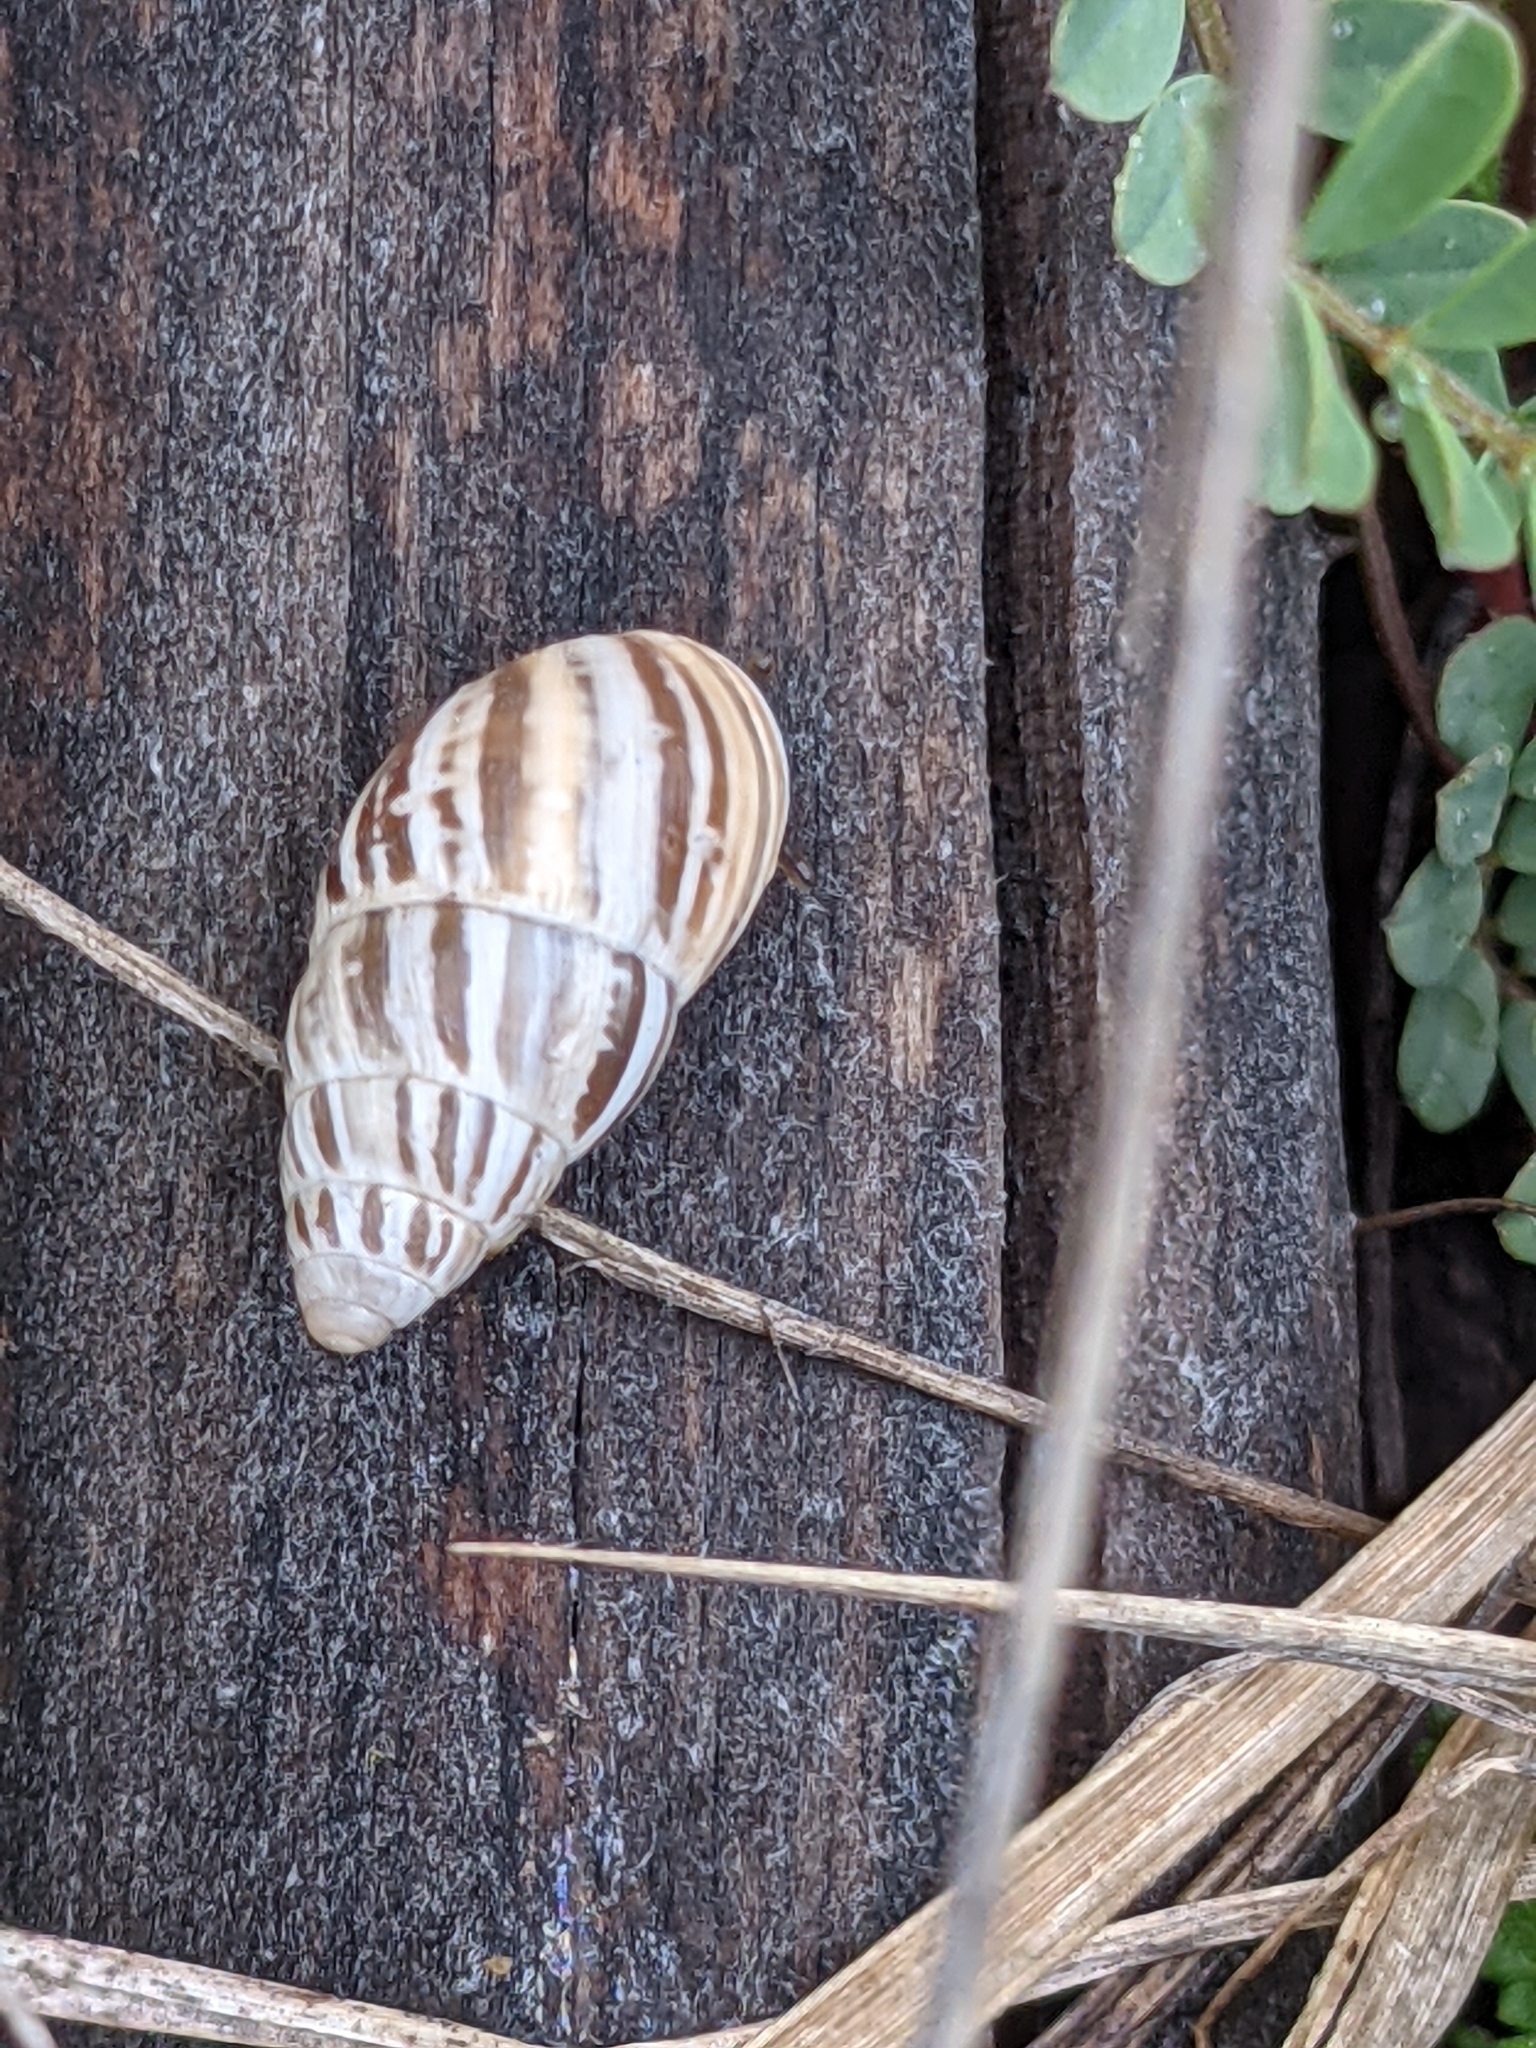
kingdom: Animalia
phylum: Mollusca
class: Gastropoda
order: Stylommatophora
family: Enidae
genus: Zebrina
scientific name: Zebrina detrita
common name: Large bulin
